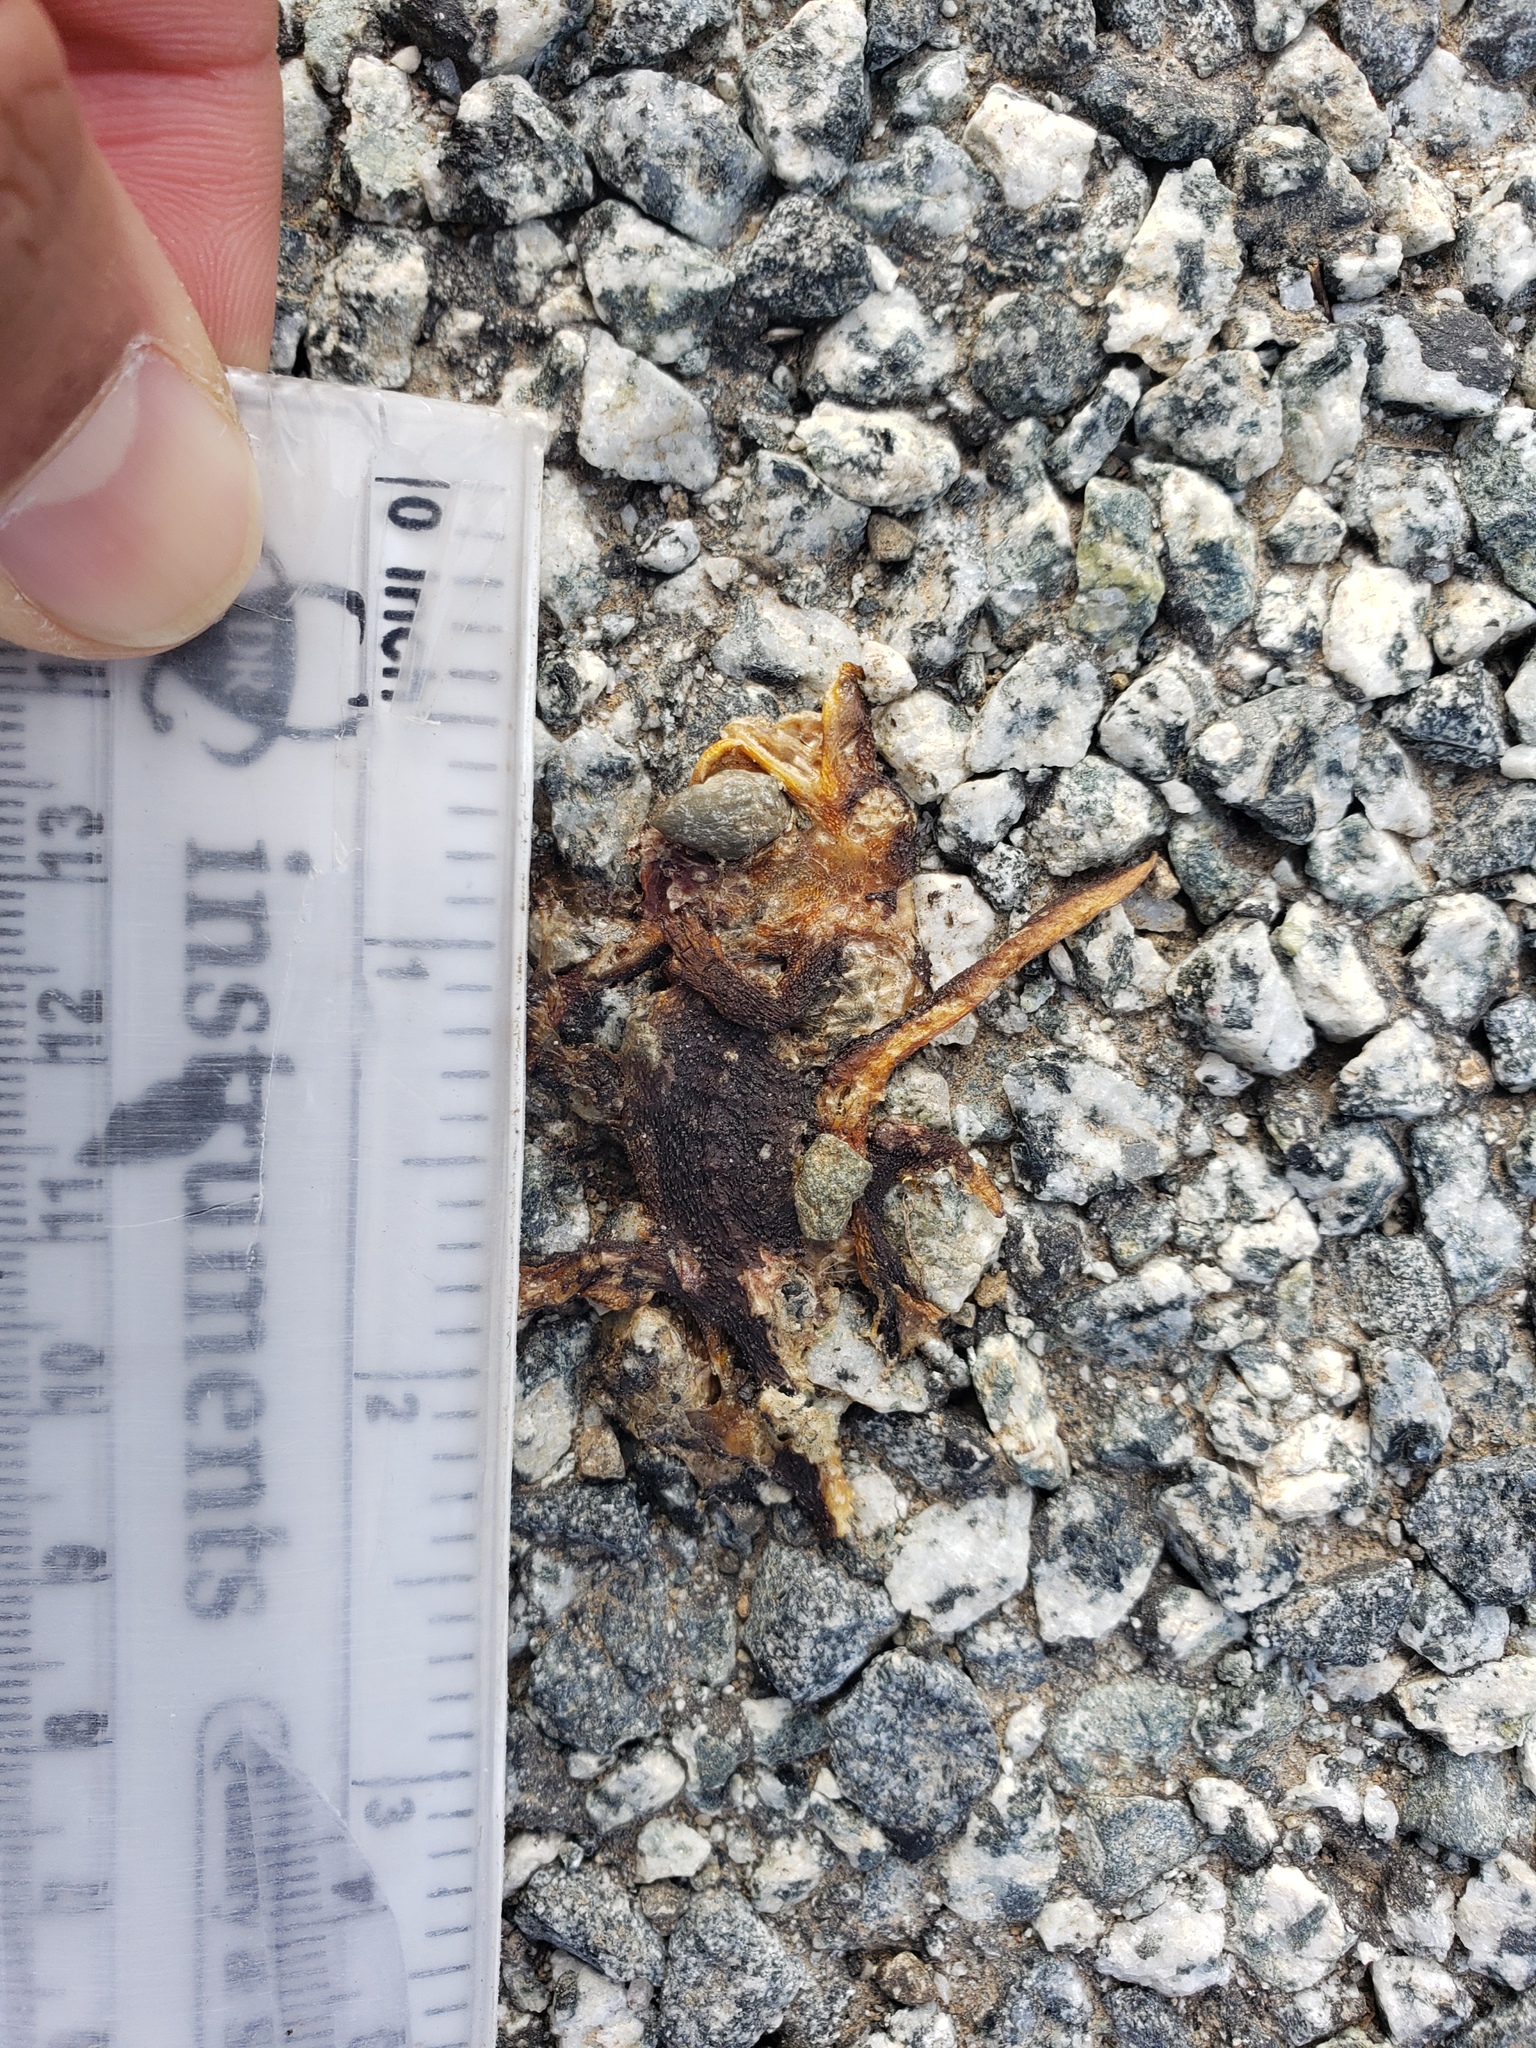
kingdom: Animalia
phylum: Chordata
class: Amphibia
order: Caudata
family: Salamandridae
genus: Taricha
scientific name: Taricha
